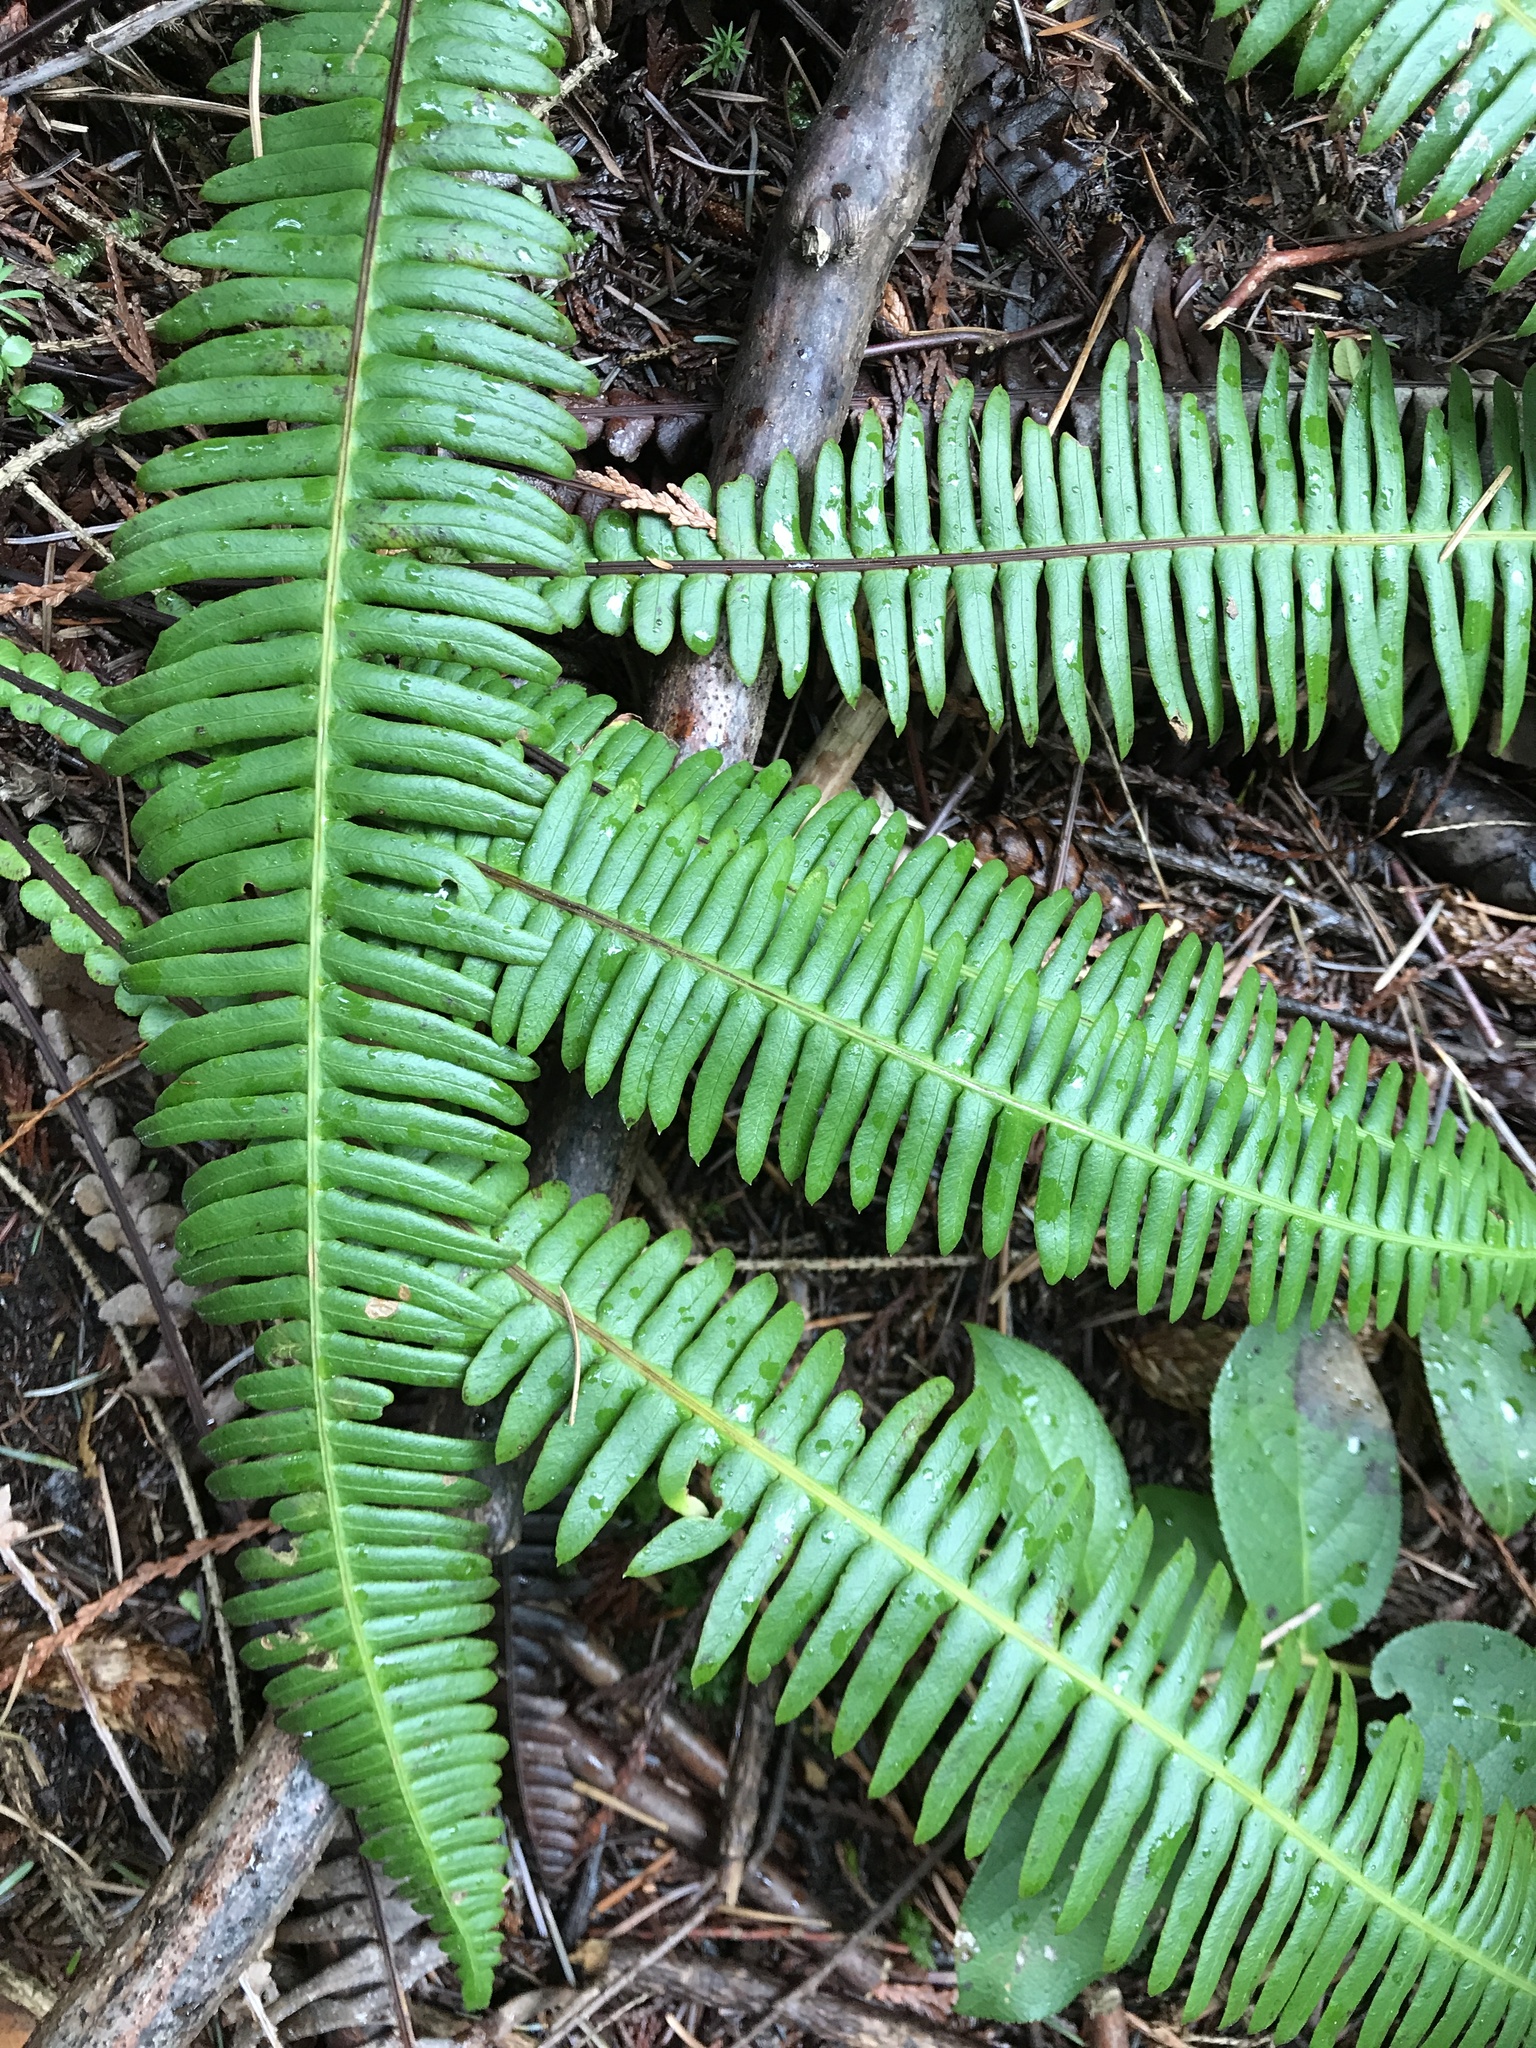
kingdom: Plantae
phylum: Tracheophyta
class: Polypodiopsida
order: Polypodiales
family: Blechnaceae
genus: Struthiopteris
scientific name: Struthiopteris spicant
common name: Deer fern
